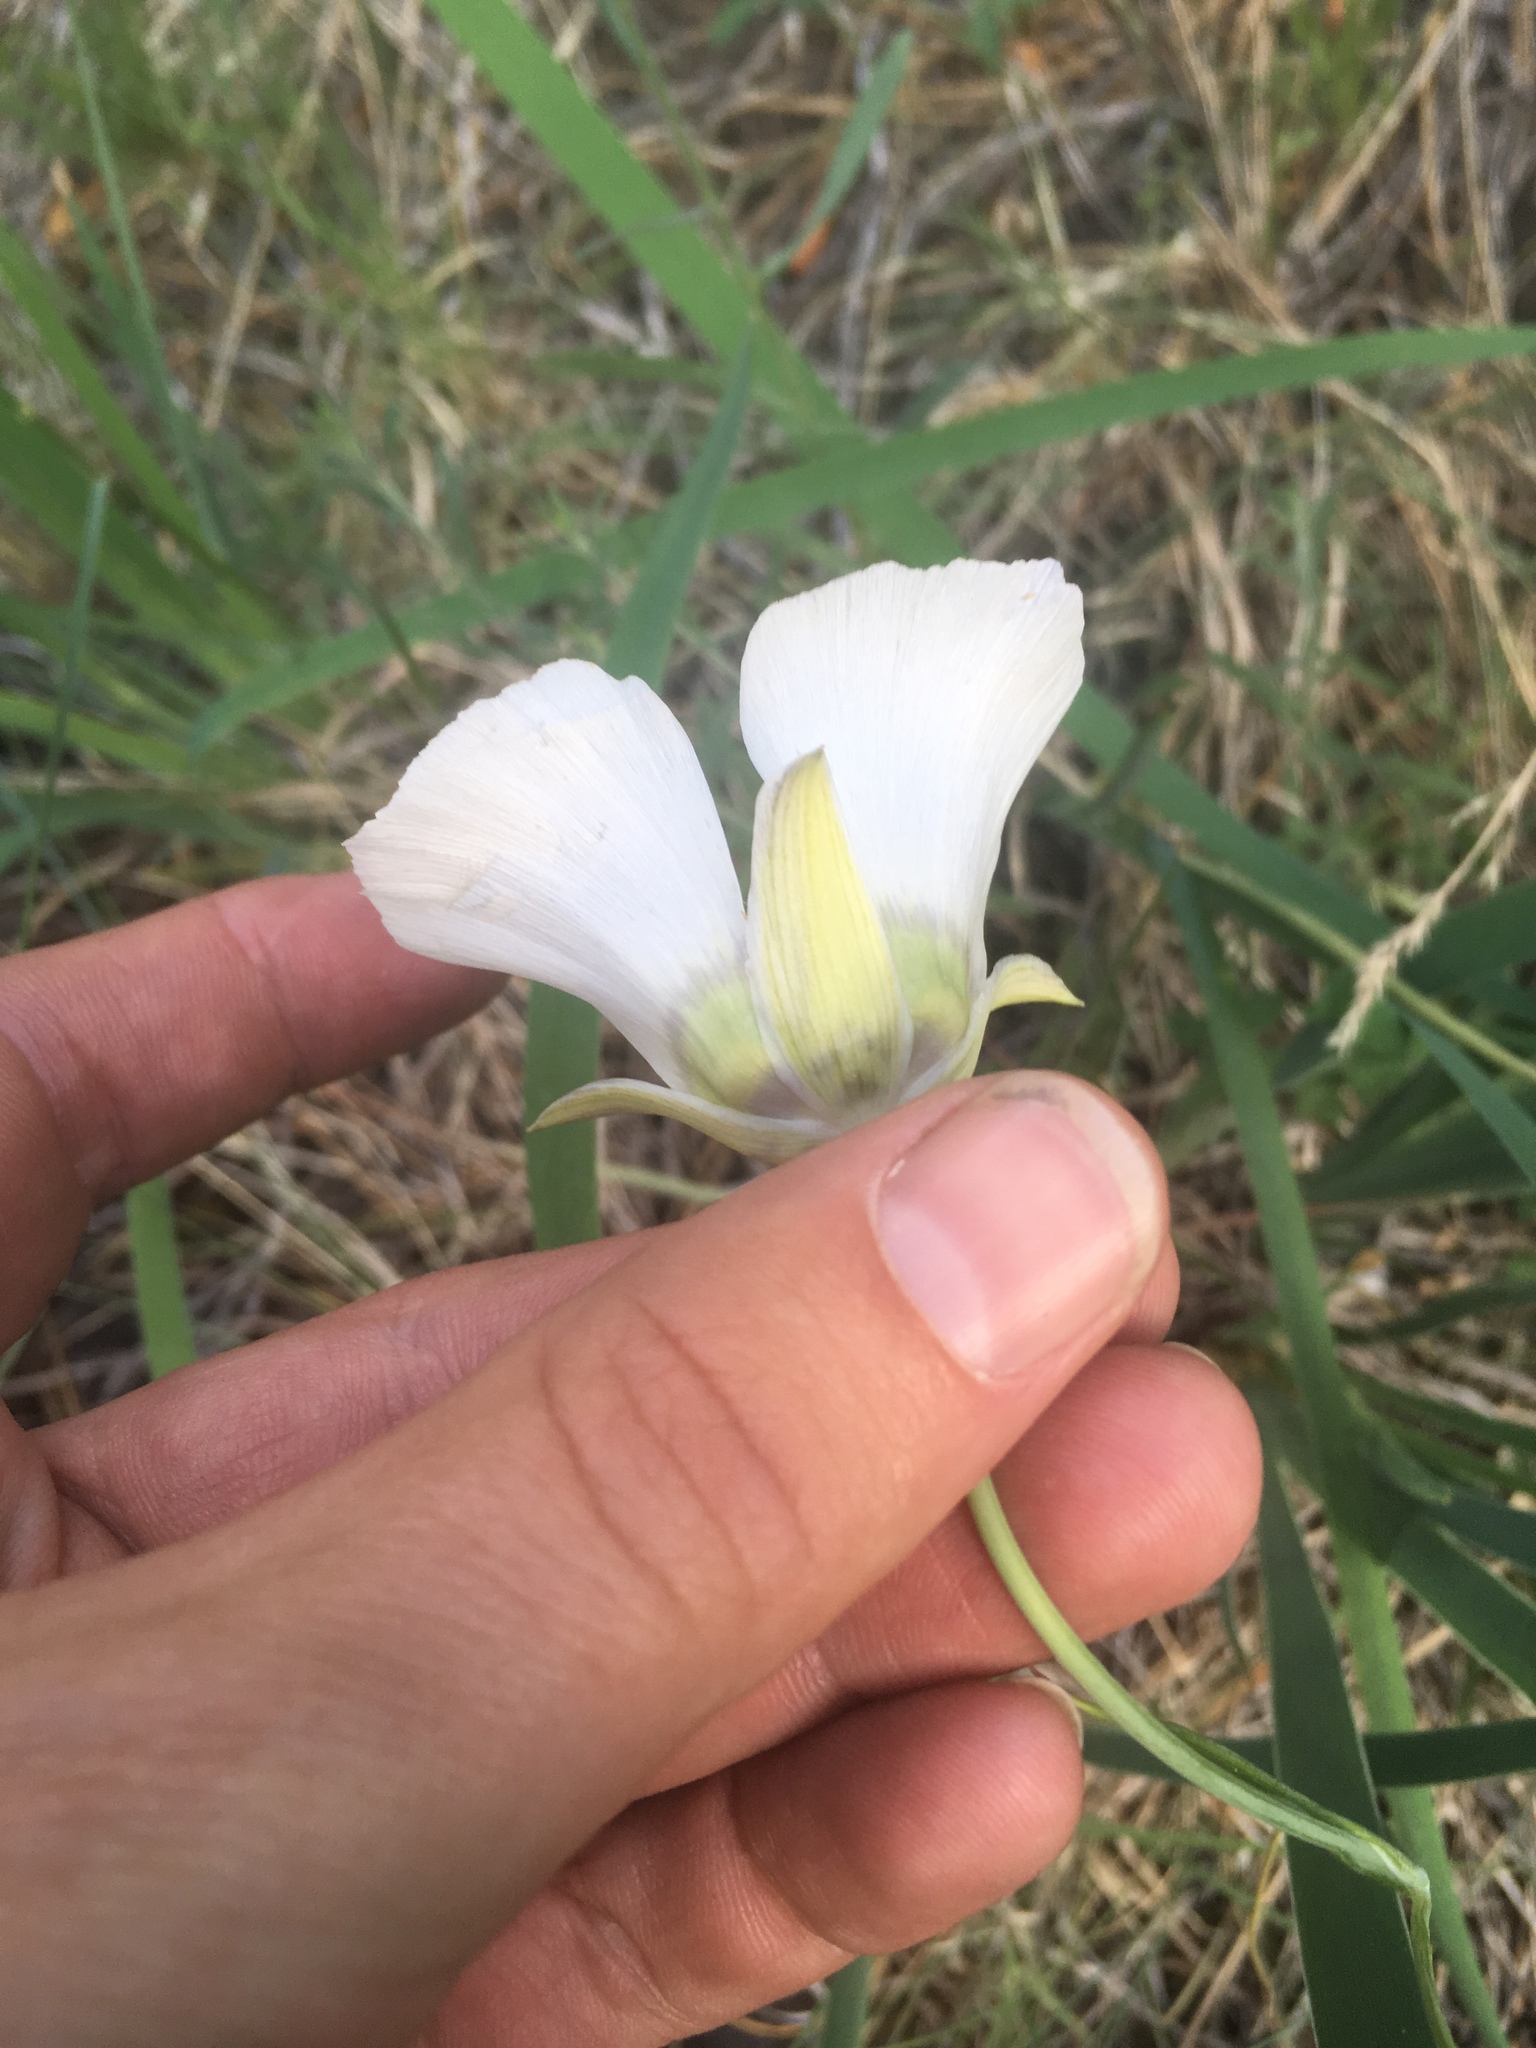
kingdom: Plantae
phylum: Tracheophyta
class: Liliopsida
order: Liliales
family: Liliaceae
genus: Calochortus
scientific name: Calochortus ambiguus
